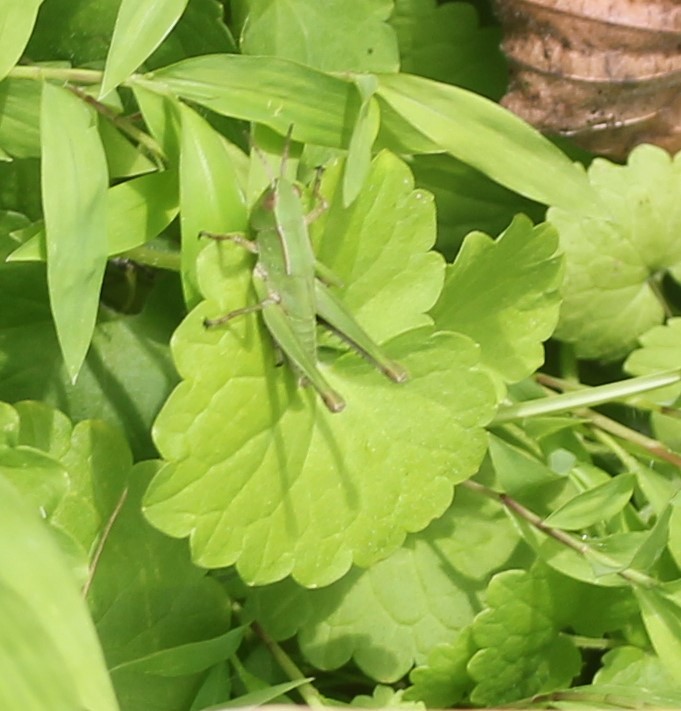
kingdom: Animalia
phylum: Arthropoda
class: Insecta
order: Orthoptera
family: Acrididae
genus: Dichromorpha
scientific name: Dichromorpha viridis
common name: Short-winged green grasshopper
